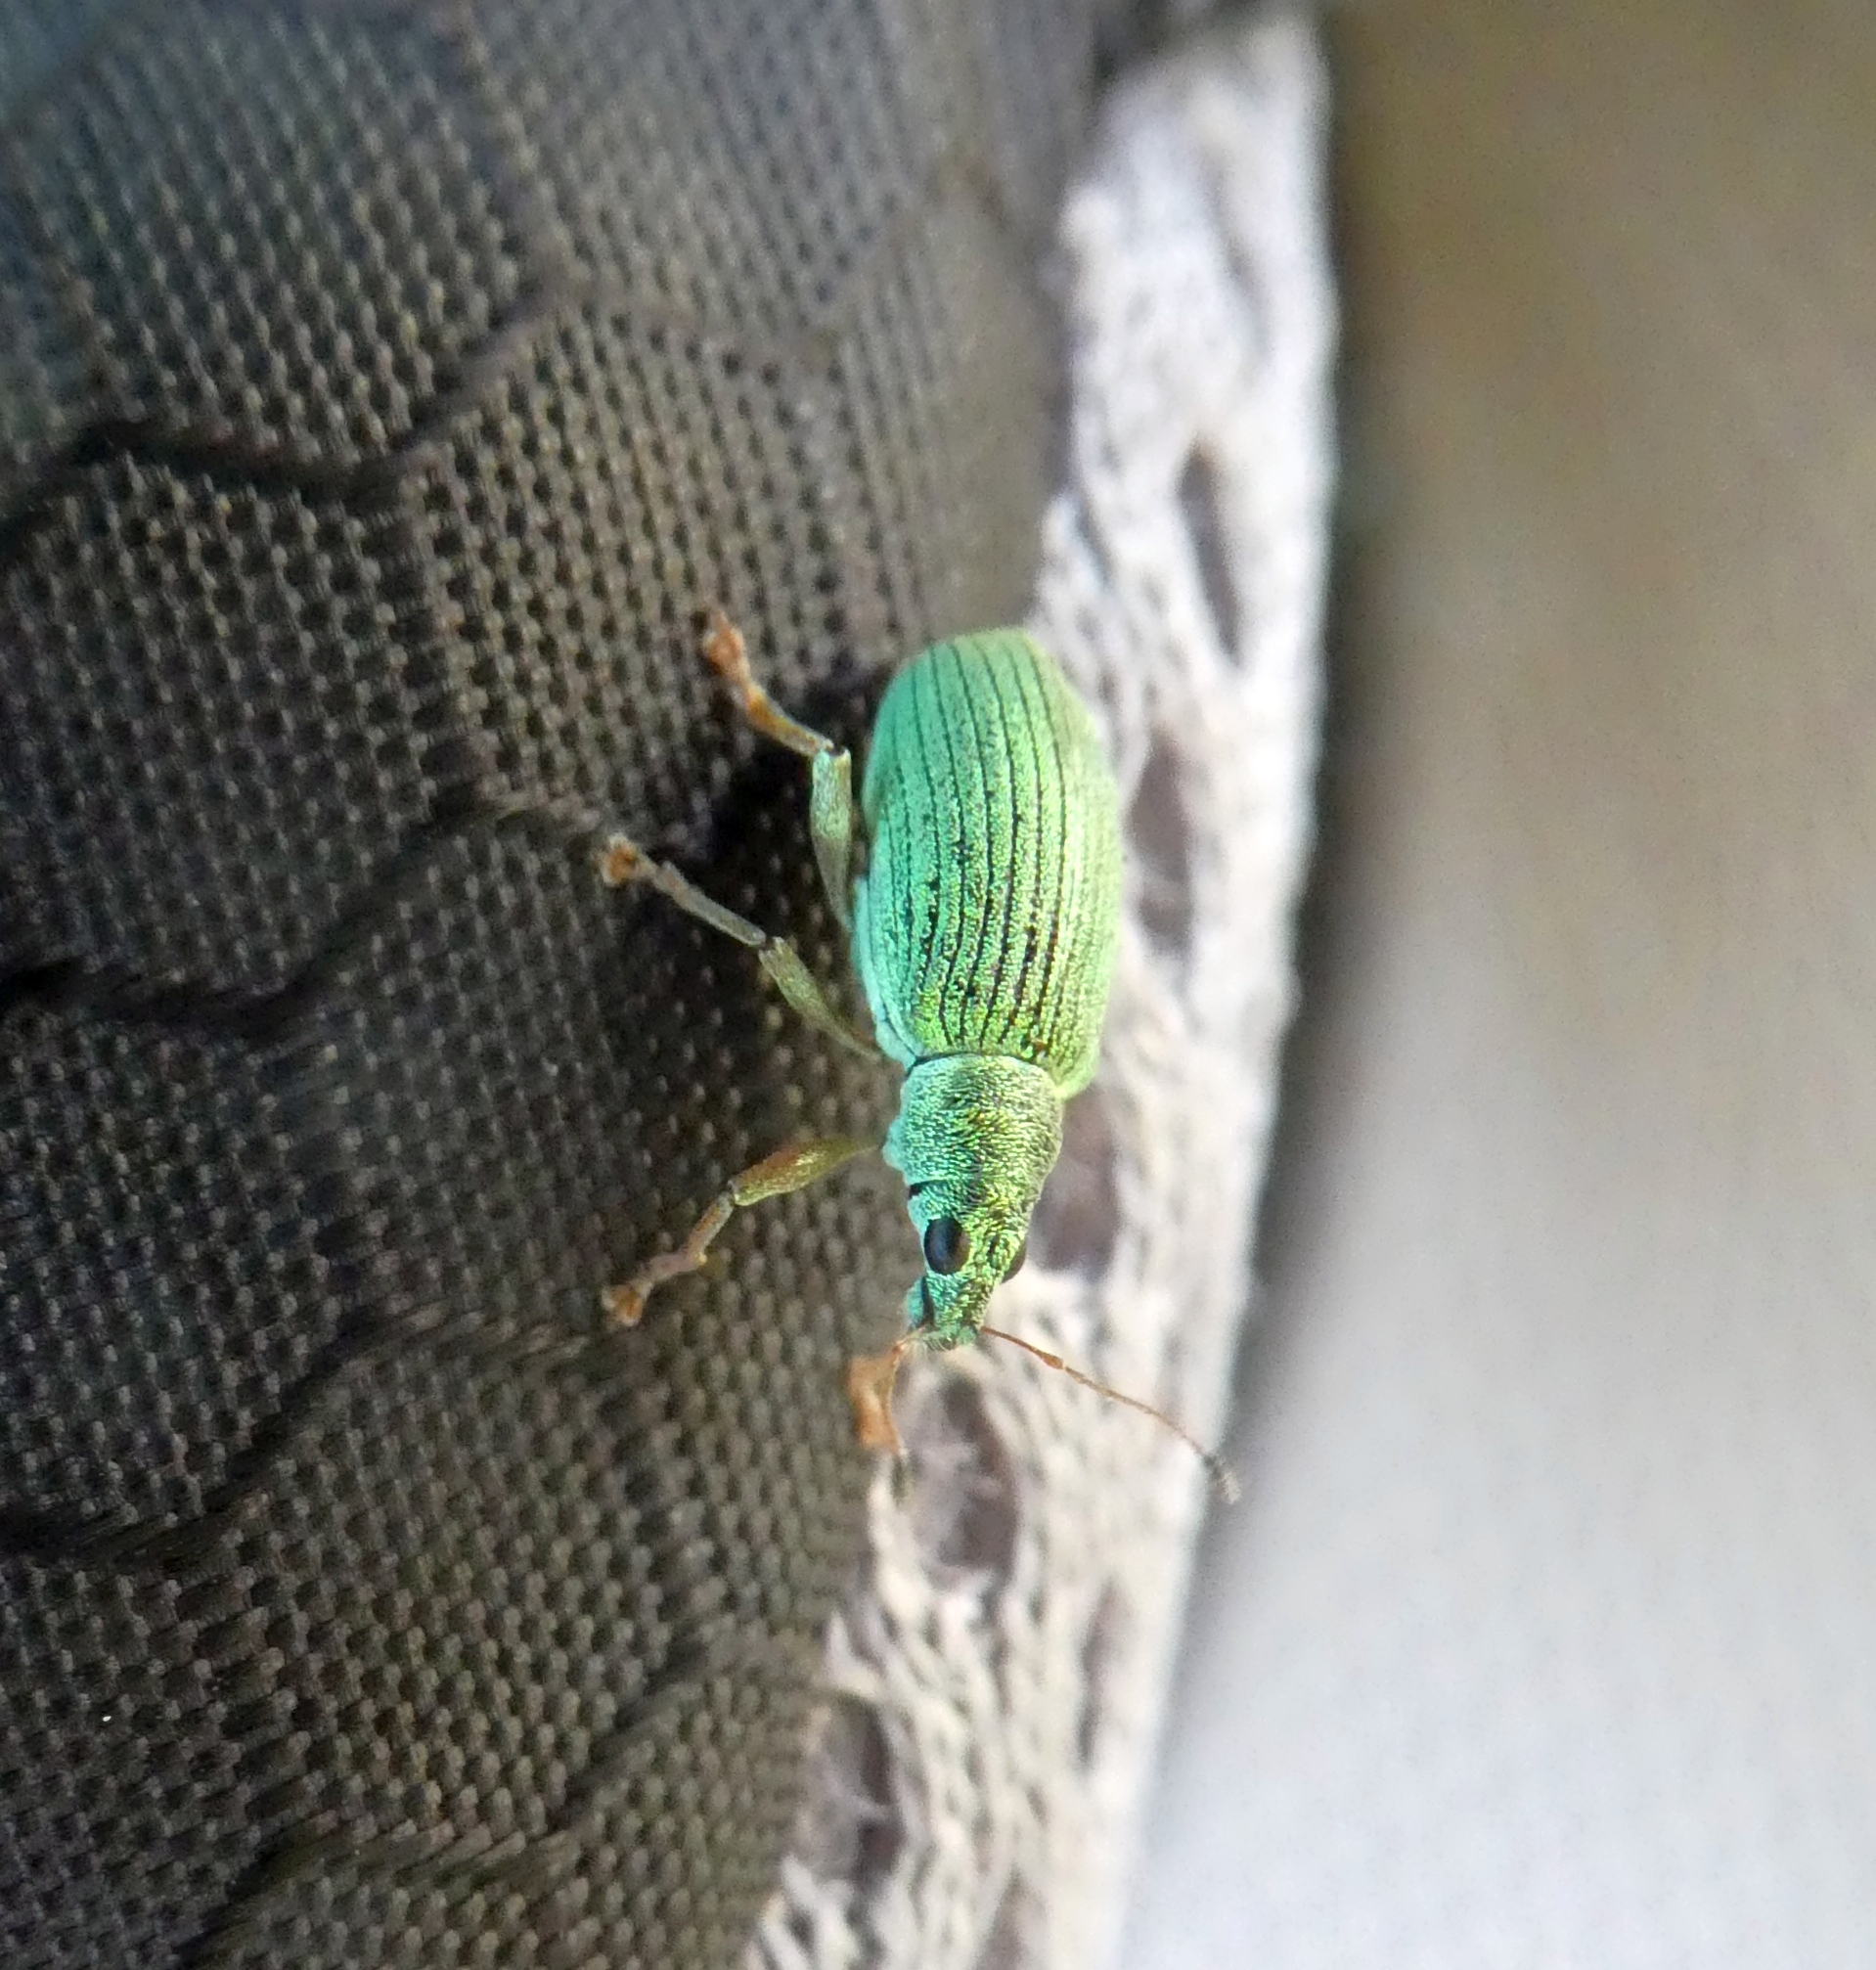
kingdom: Animalia
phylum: Arthropoda
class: Insecta
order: Coleoptera
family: Curculionidae
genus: Polydrusus
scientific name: Polydrusus formosus
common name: Weevil
